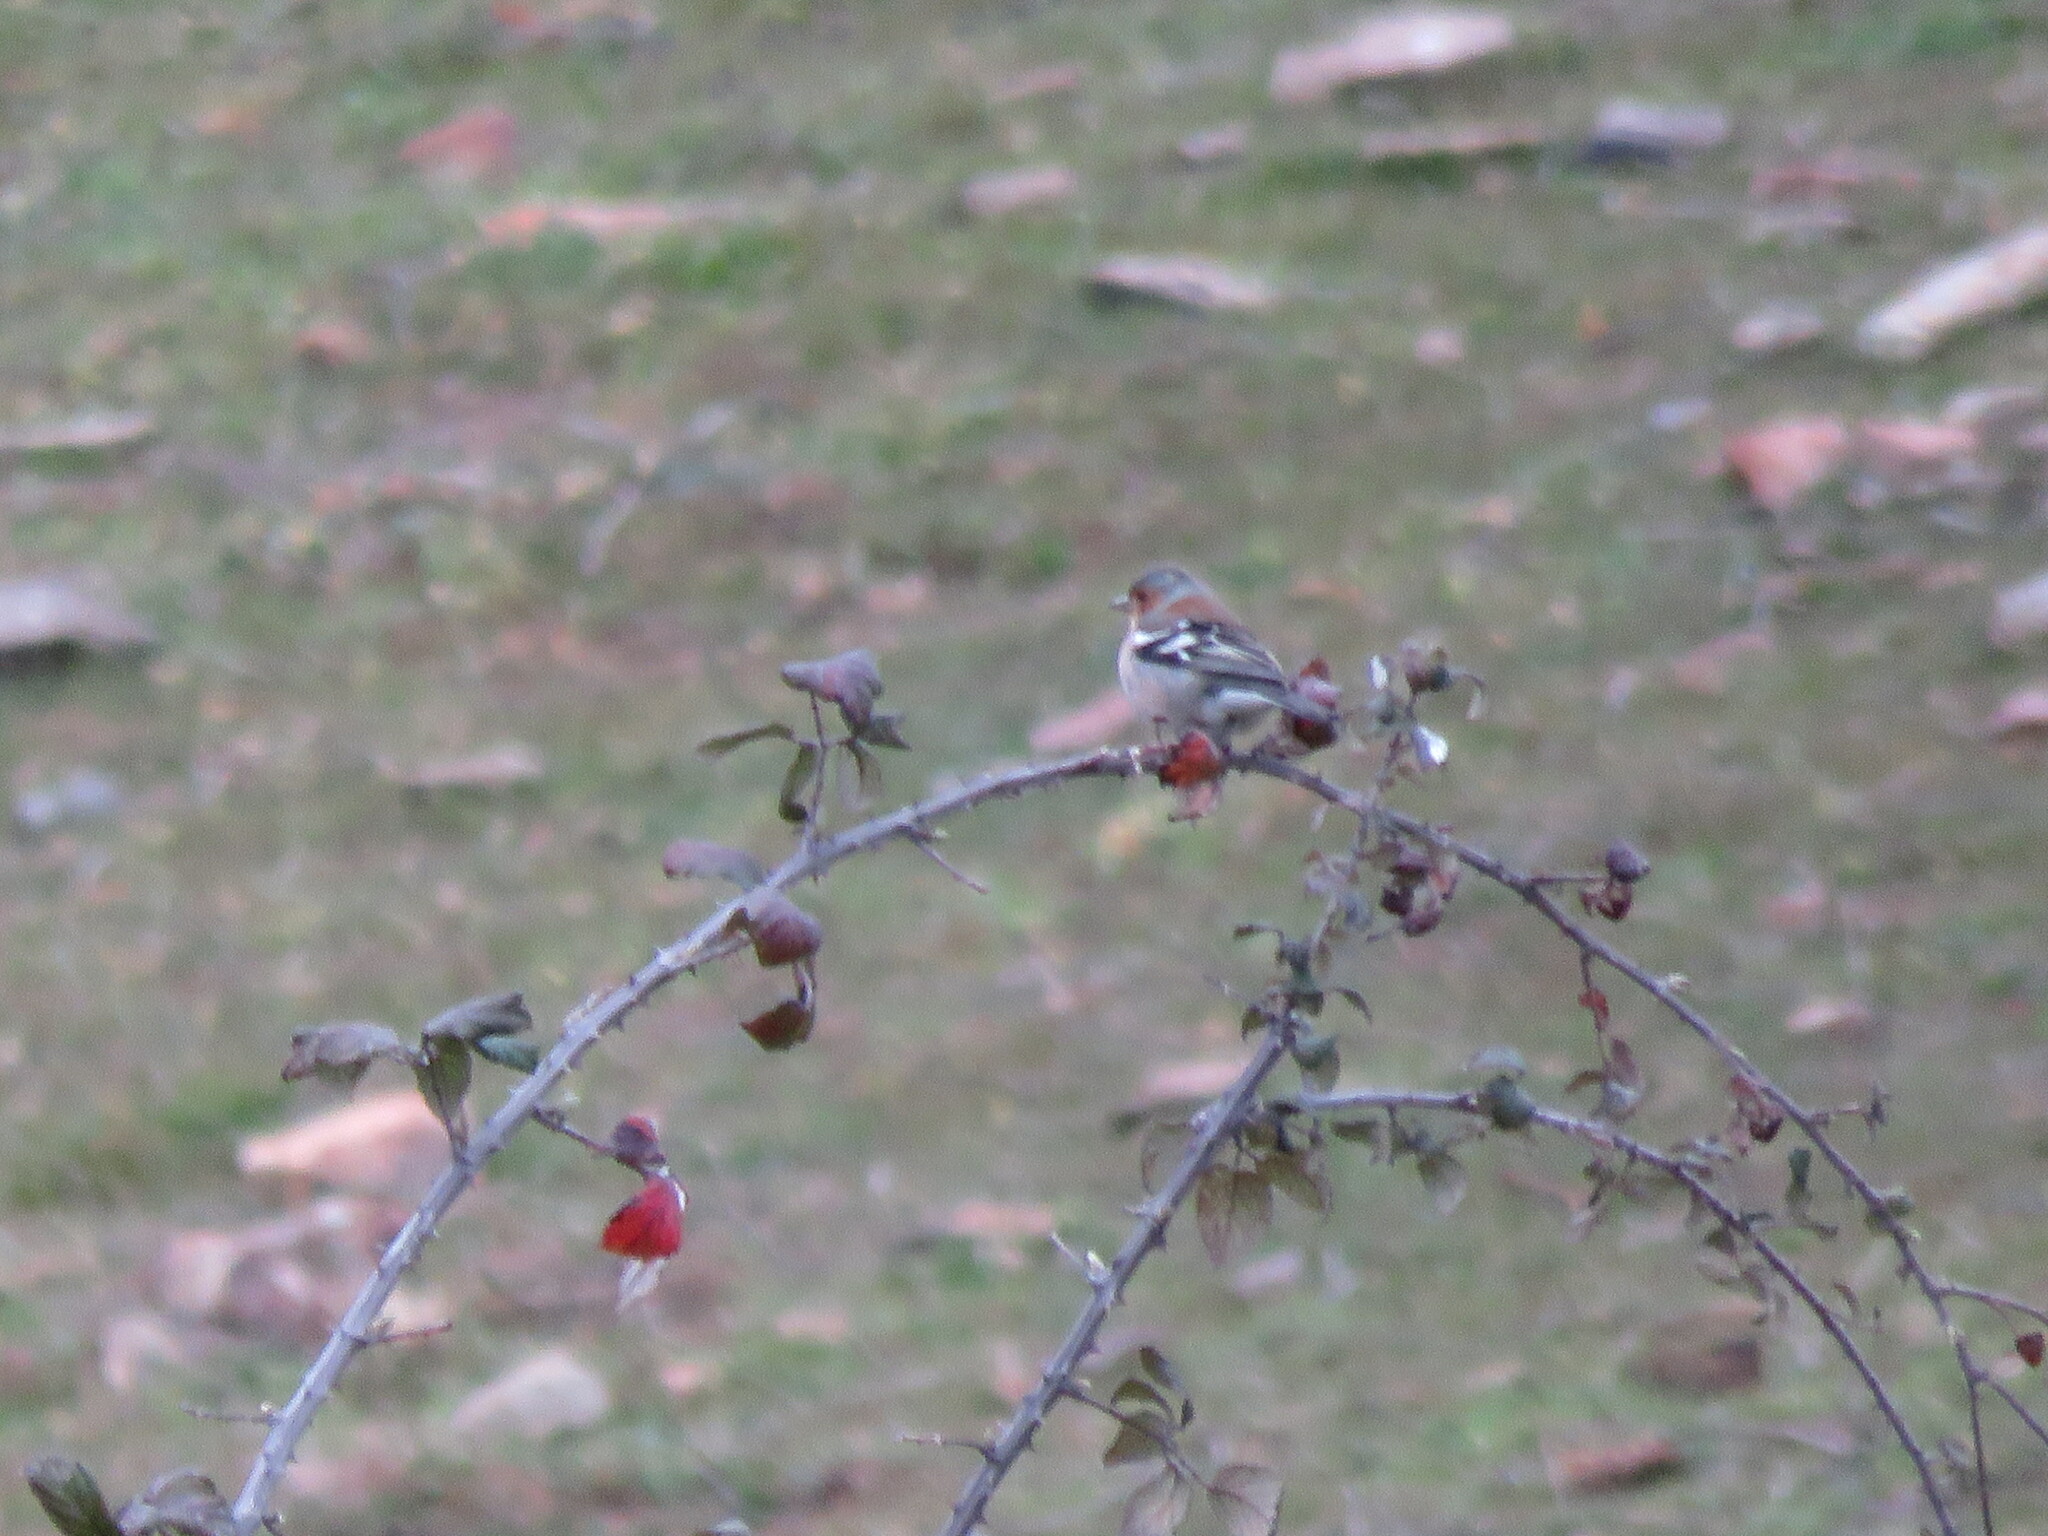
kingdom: Animalia
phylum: Chordata
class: Aves
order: Passeriformes
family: Fringillidae
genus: Fringilla
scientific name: Fringilla coelebs
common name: Common chaffinch
